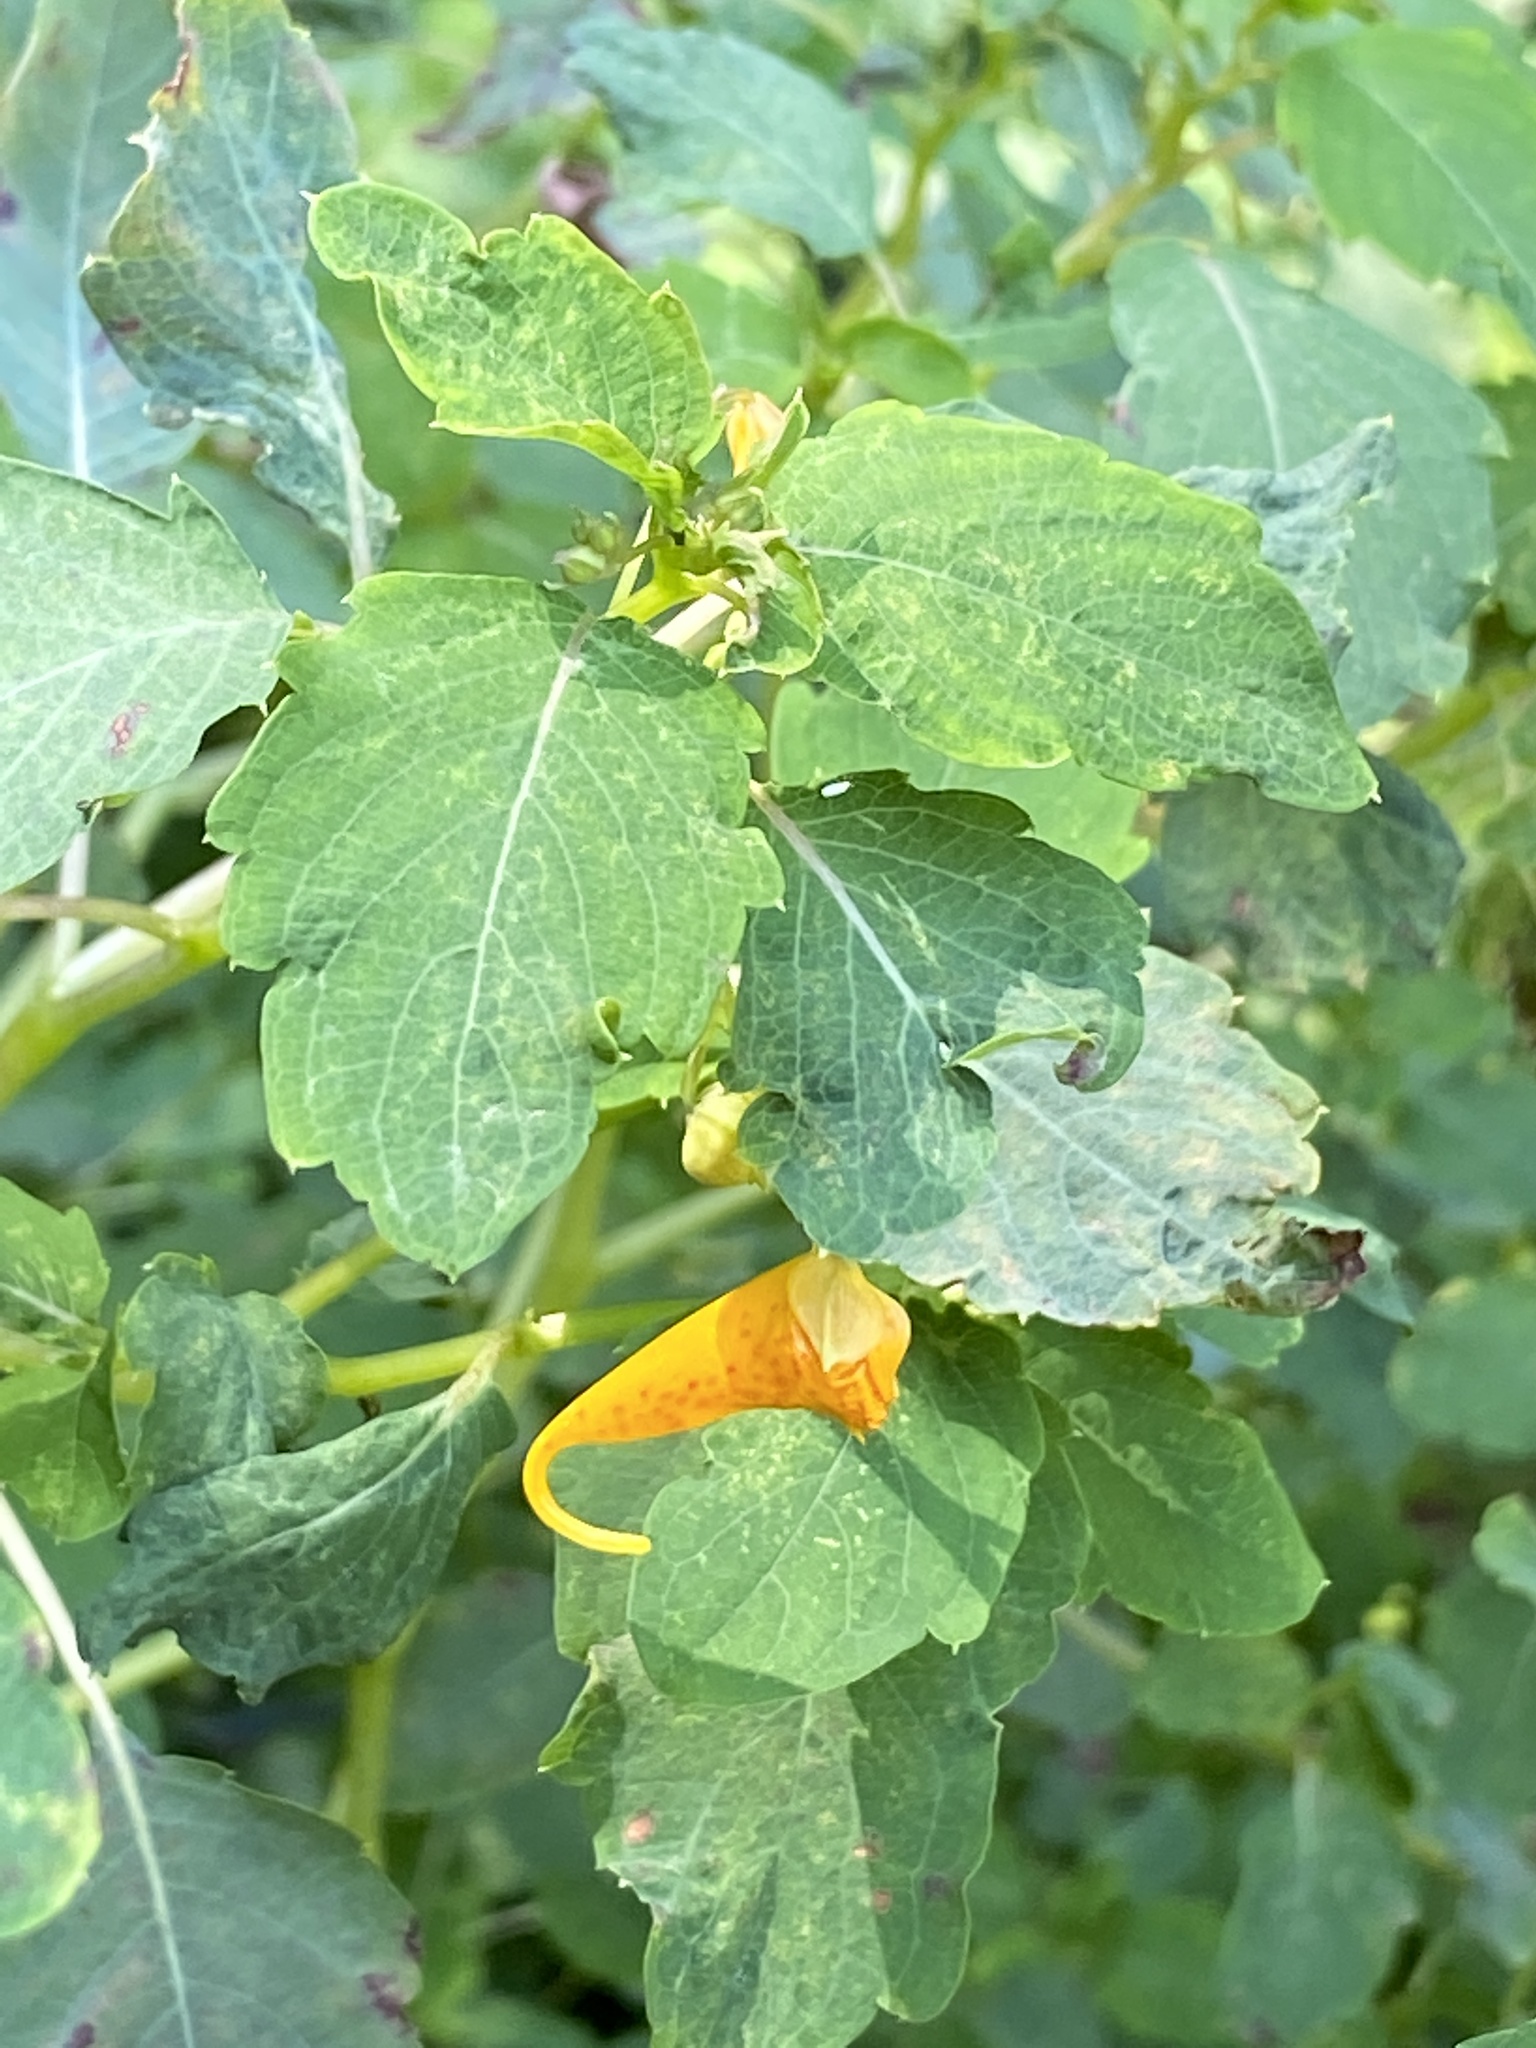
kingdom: Plantae
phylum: Tracheophyta
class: Magnoliopsida
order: Ericales
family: Balsaminaceae
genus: Impatiens
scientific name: Impatiens capensis
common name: Orange balsam
